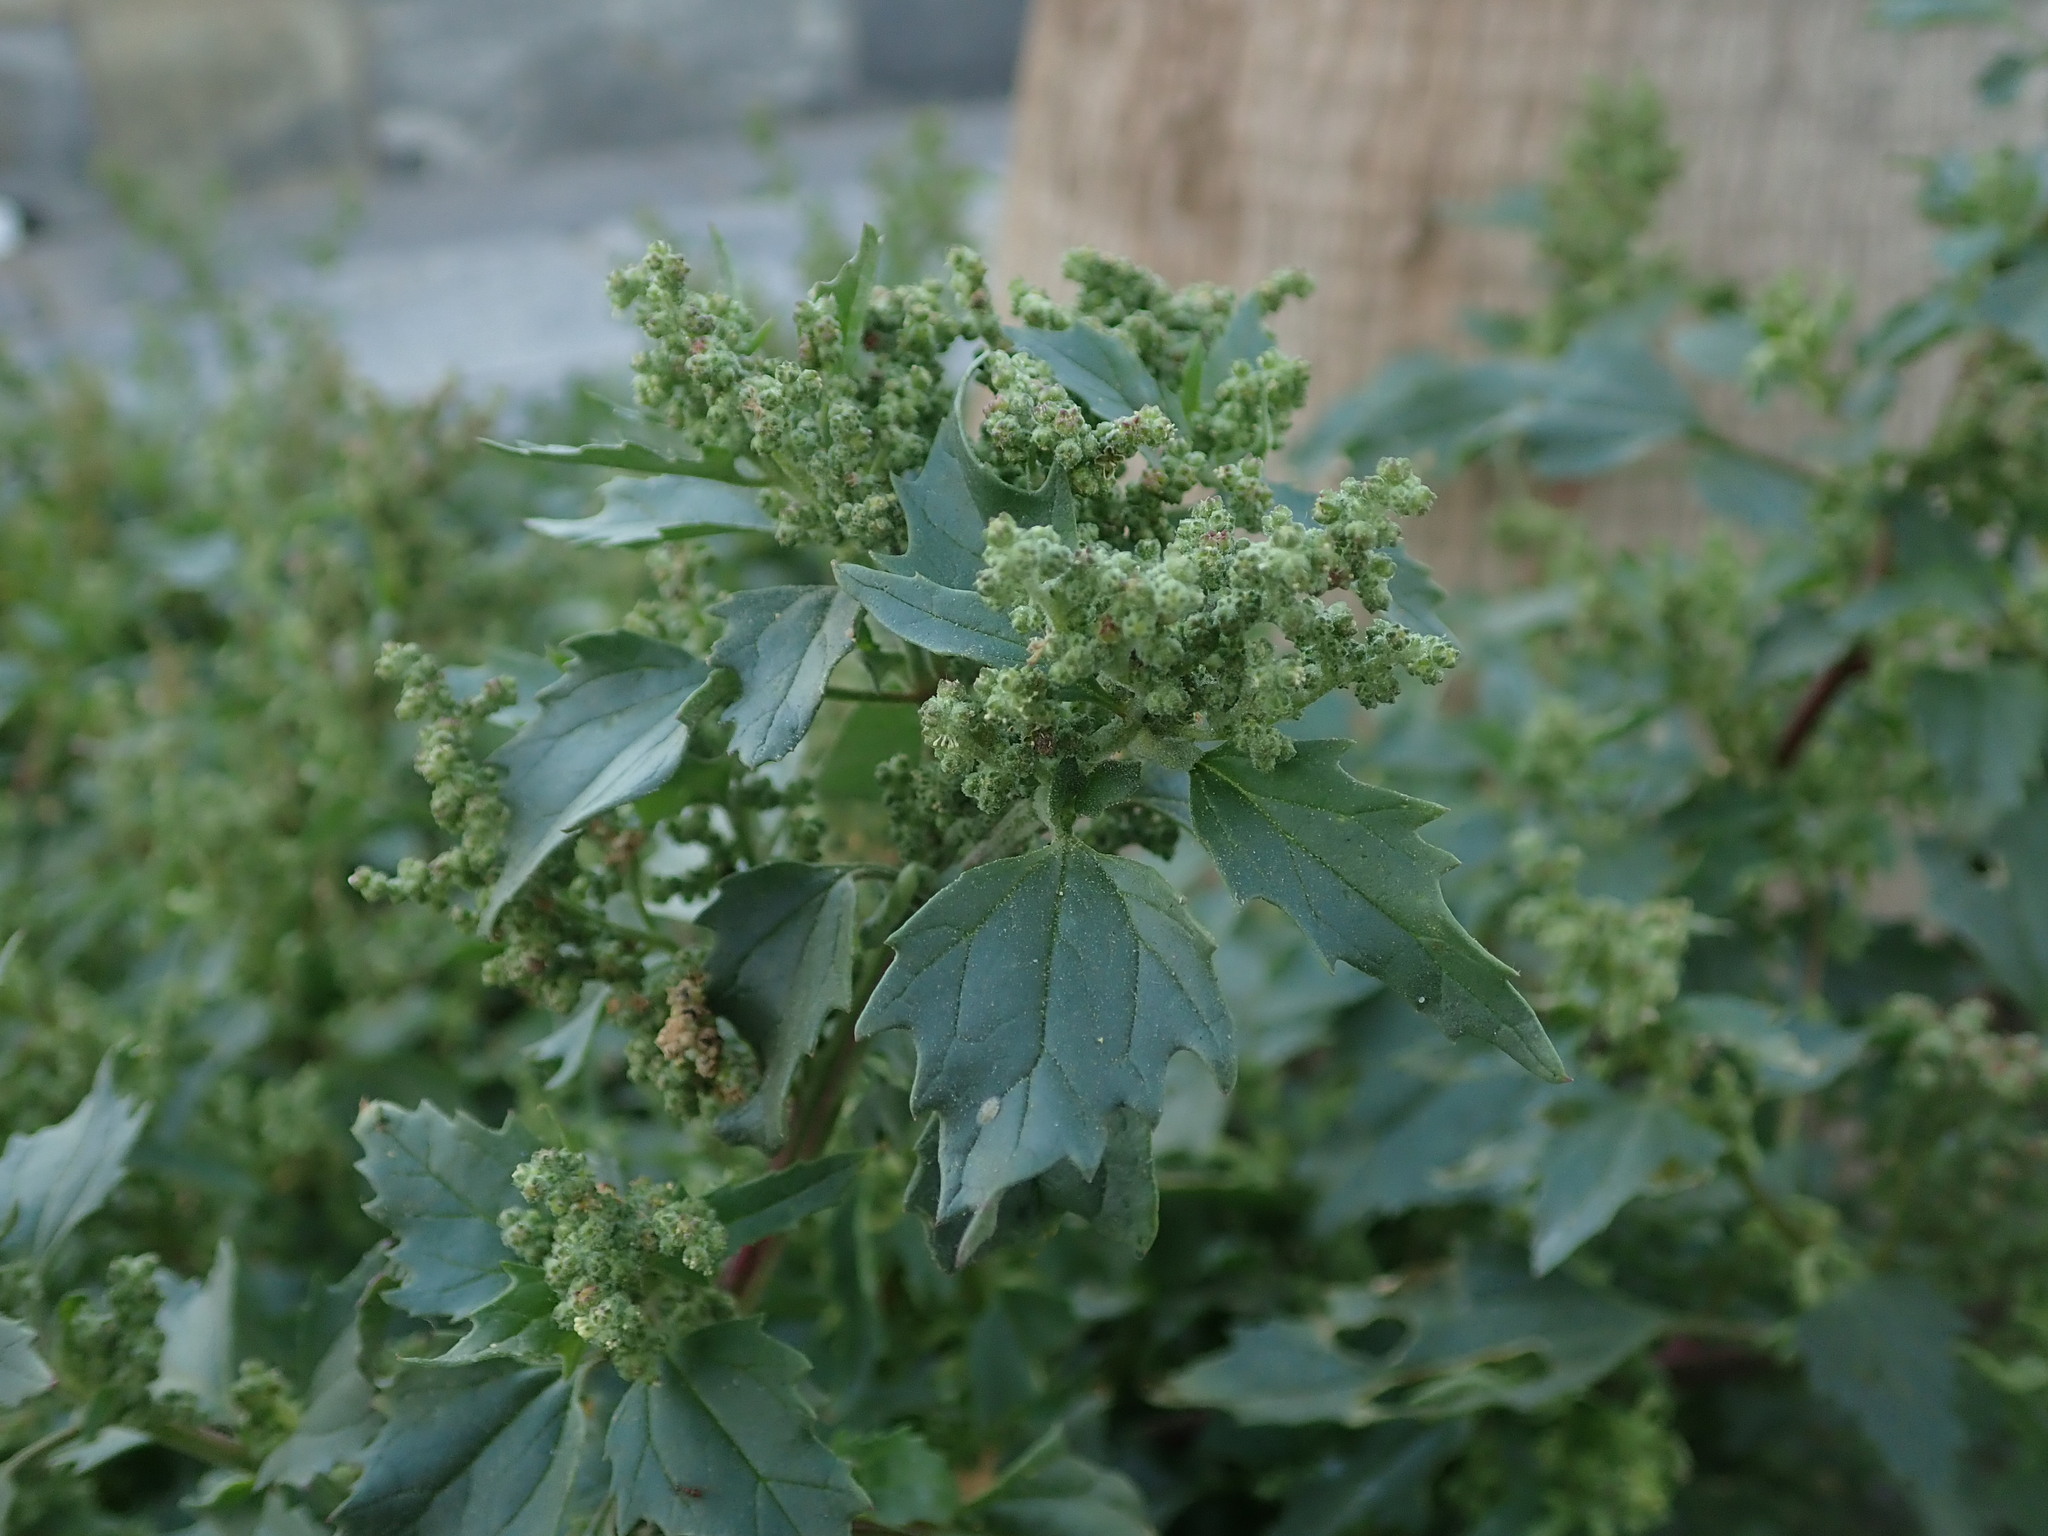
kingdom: Plantae
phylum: Tracheophyta
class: Magnoliopsida
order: Caryophyllales
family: Amaranthaceae
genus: Chenopodiastrum
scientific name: Chenopodiastrum murale
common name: Sowbane
